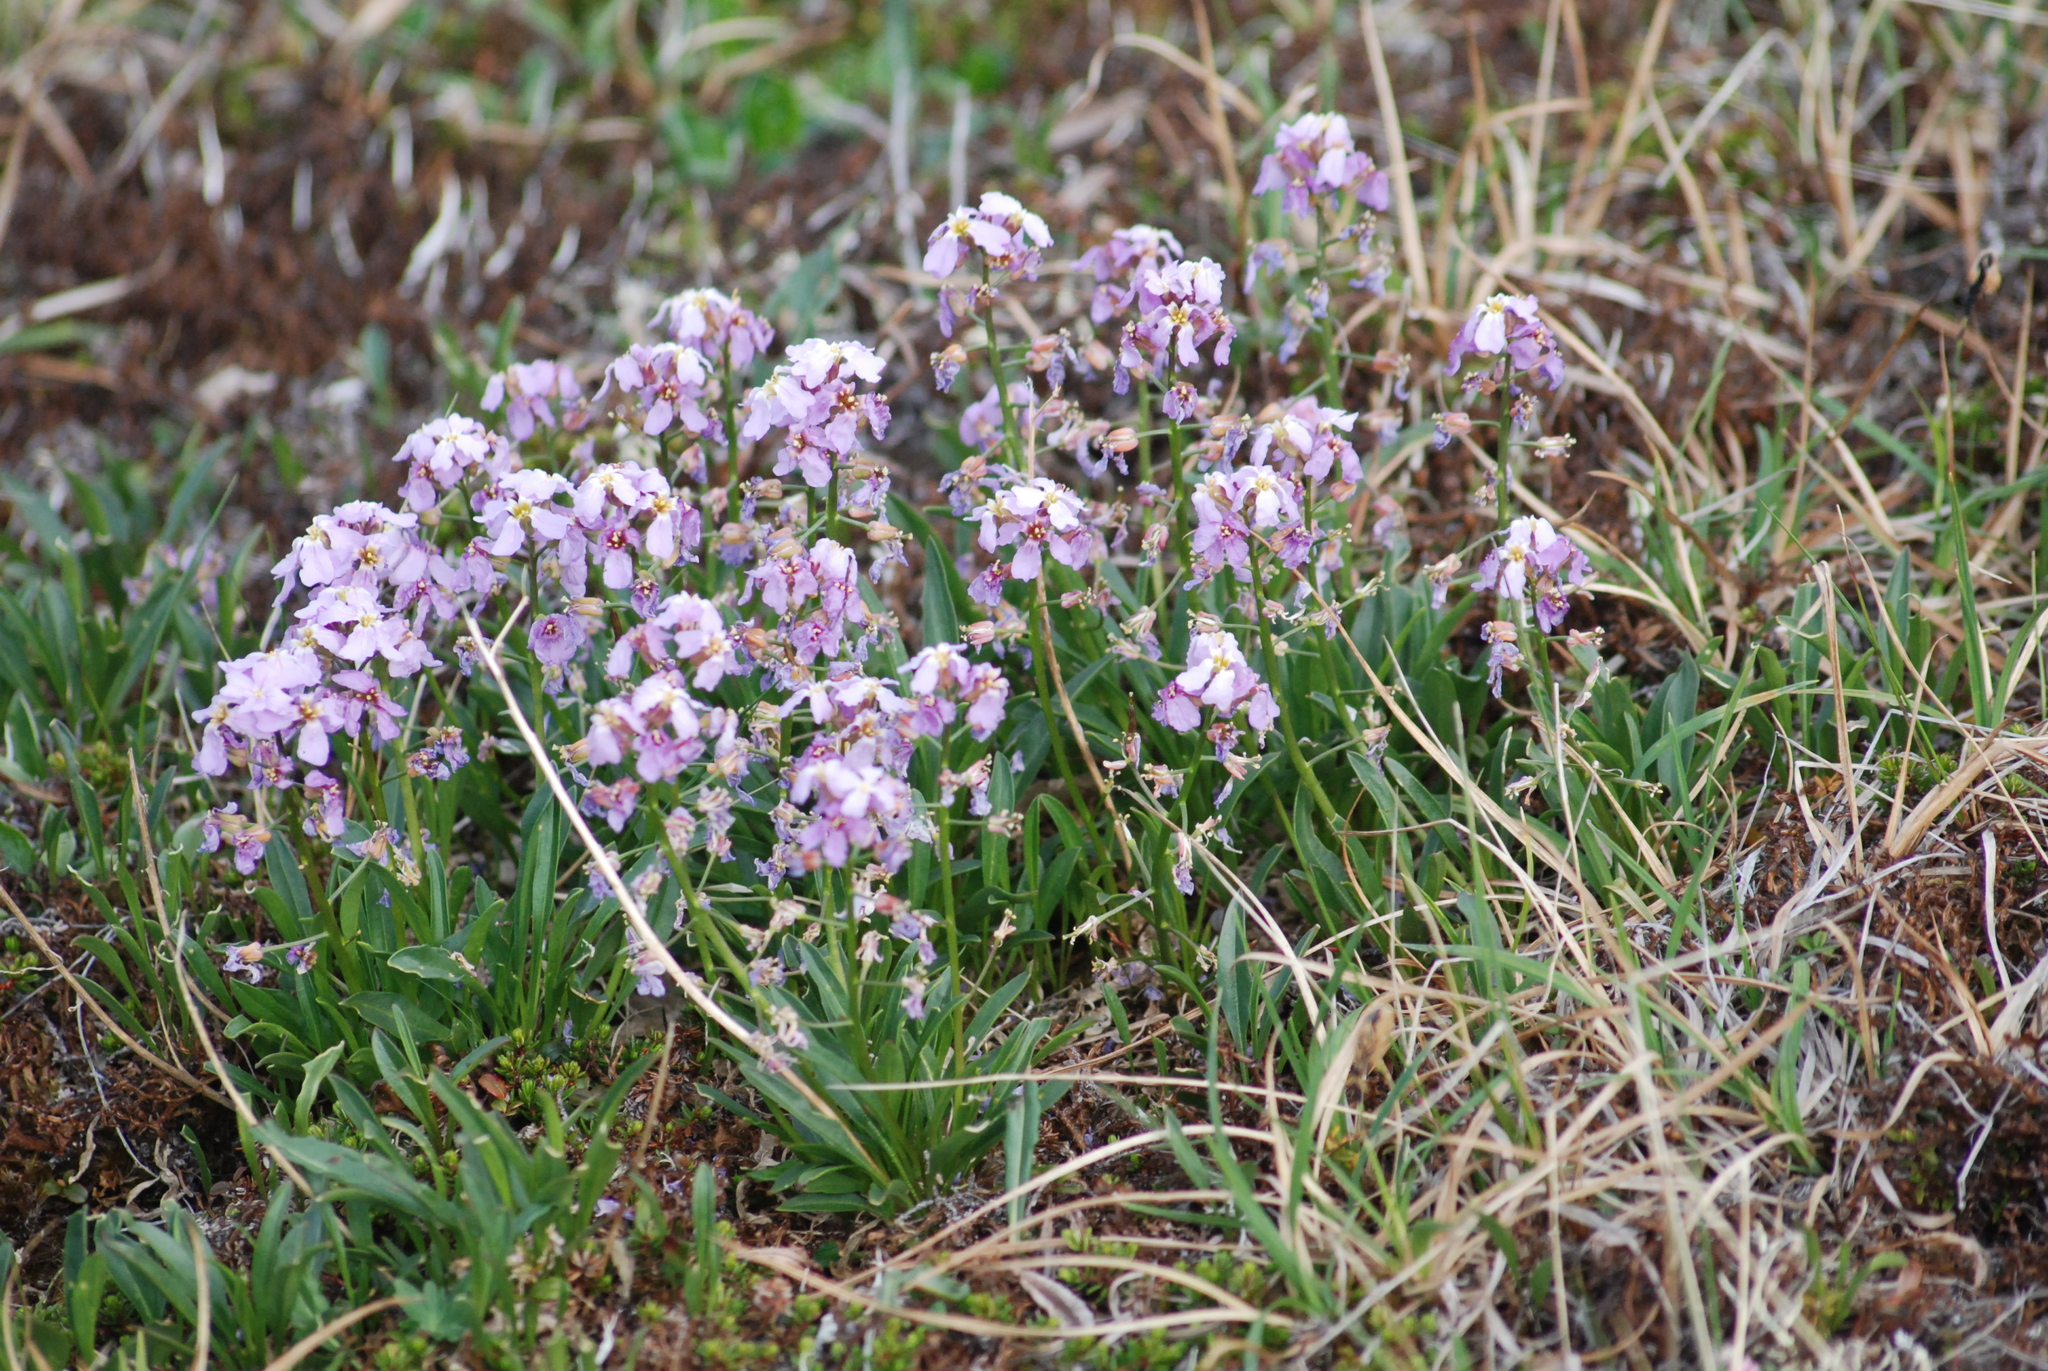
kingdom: Plantae
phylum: Tracheophyta
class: Magnoliopsida
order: Brassicales
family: Brassicaceae
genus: Parrya
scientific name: Parrya nudicaulis
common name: Naked-stemmed false wallflower
